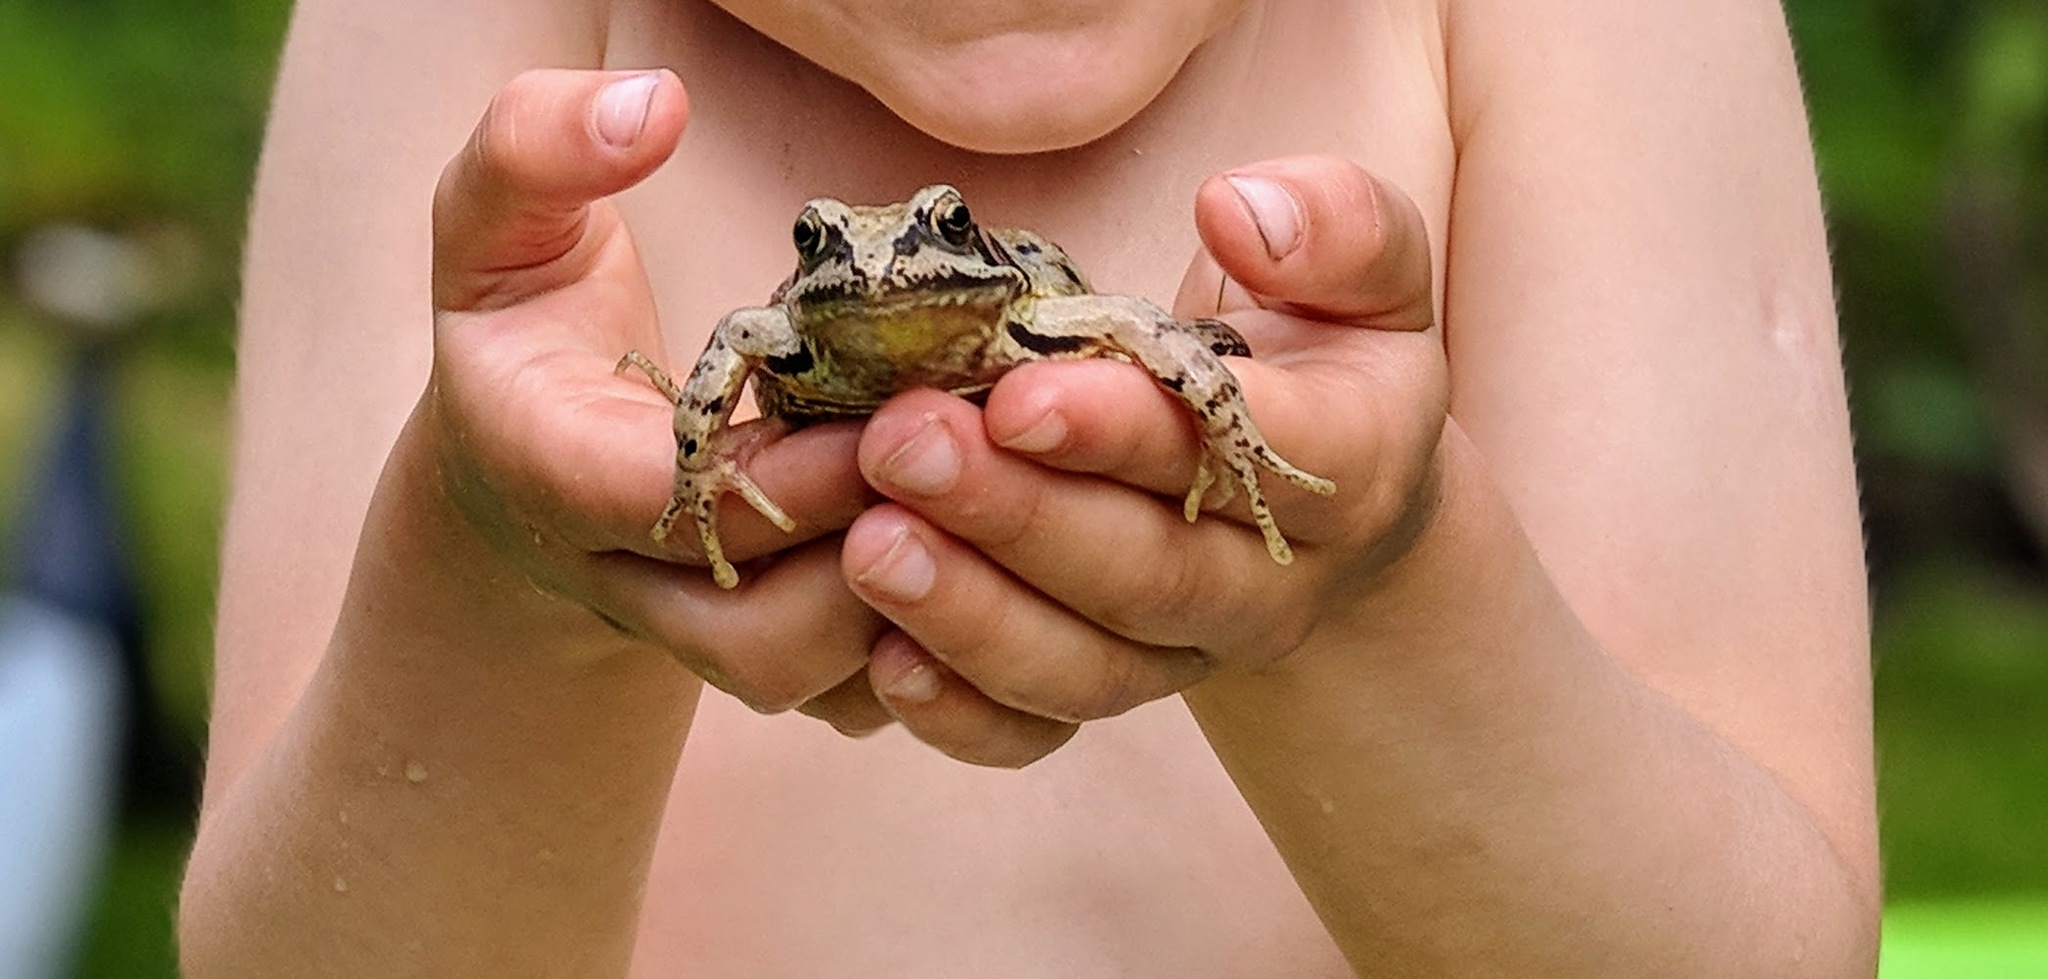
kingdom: Animalia
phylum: Chordata
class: Amphibia
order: Anura
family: Ranidae
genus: Rana
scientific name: Rana temporaria
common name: Common frog
